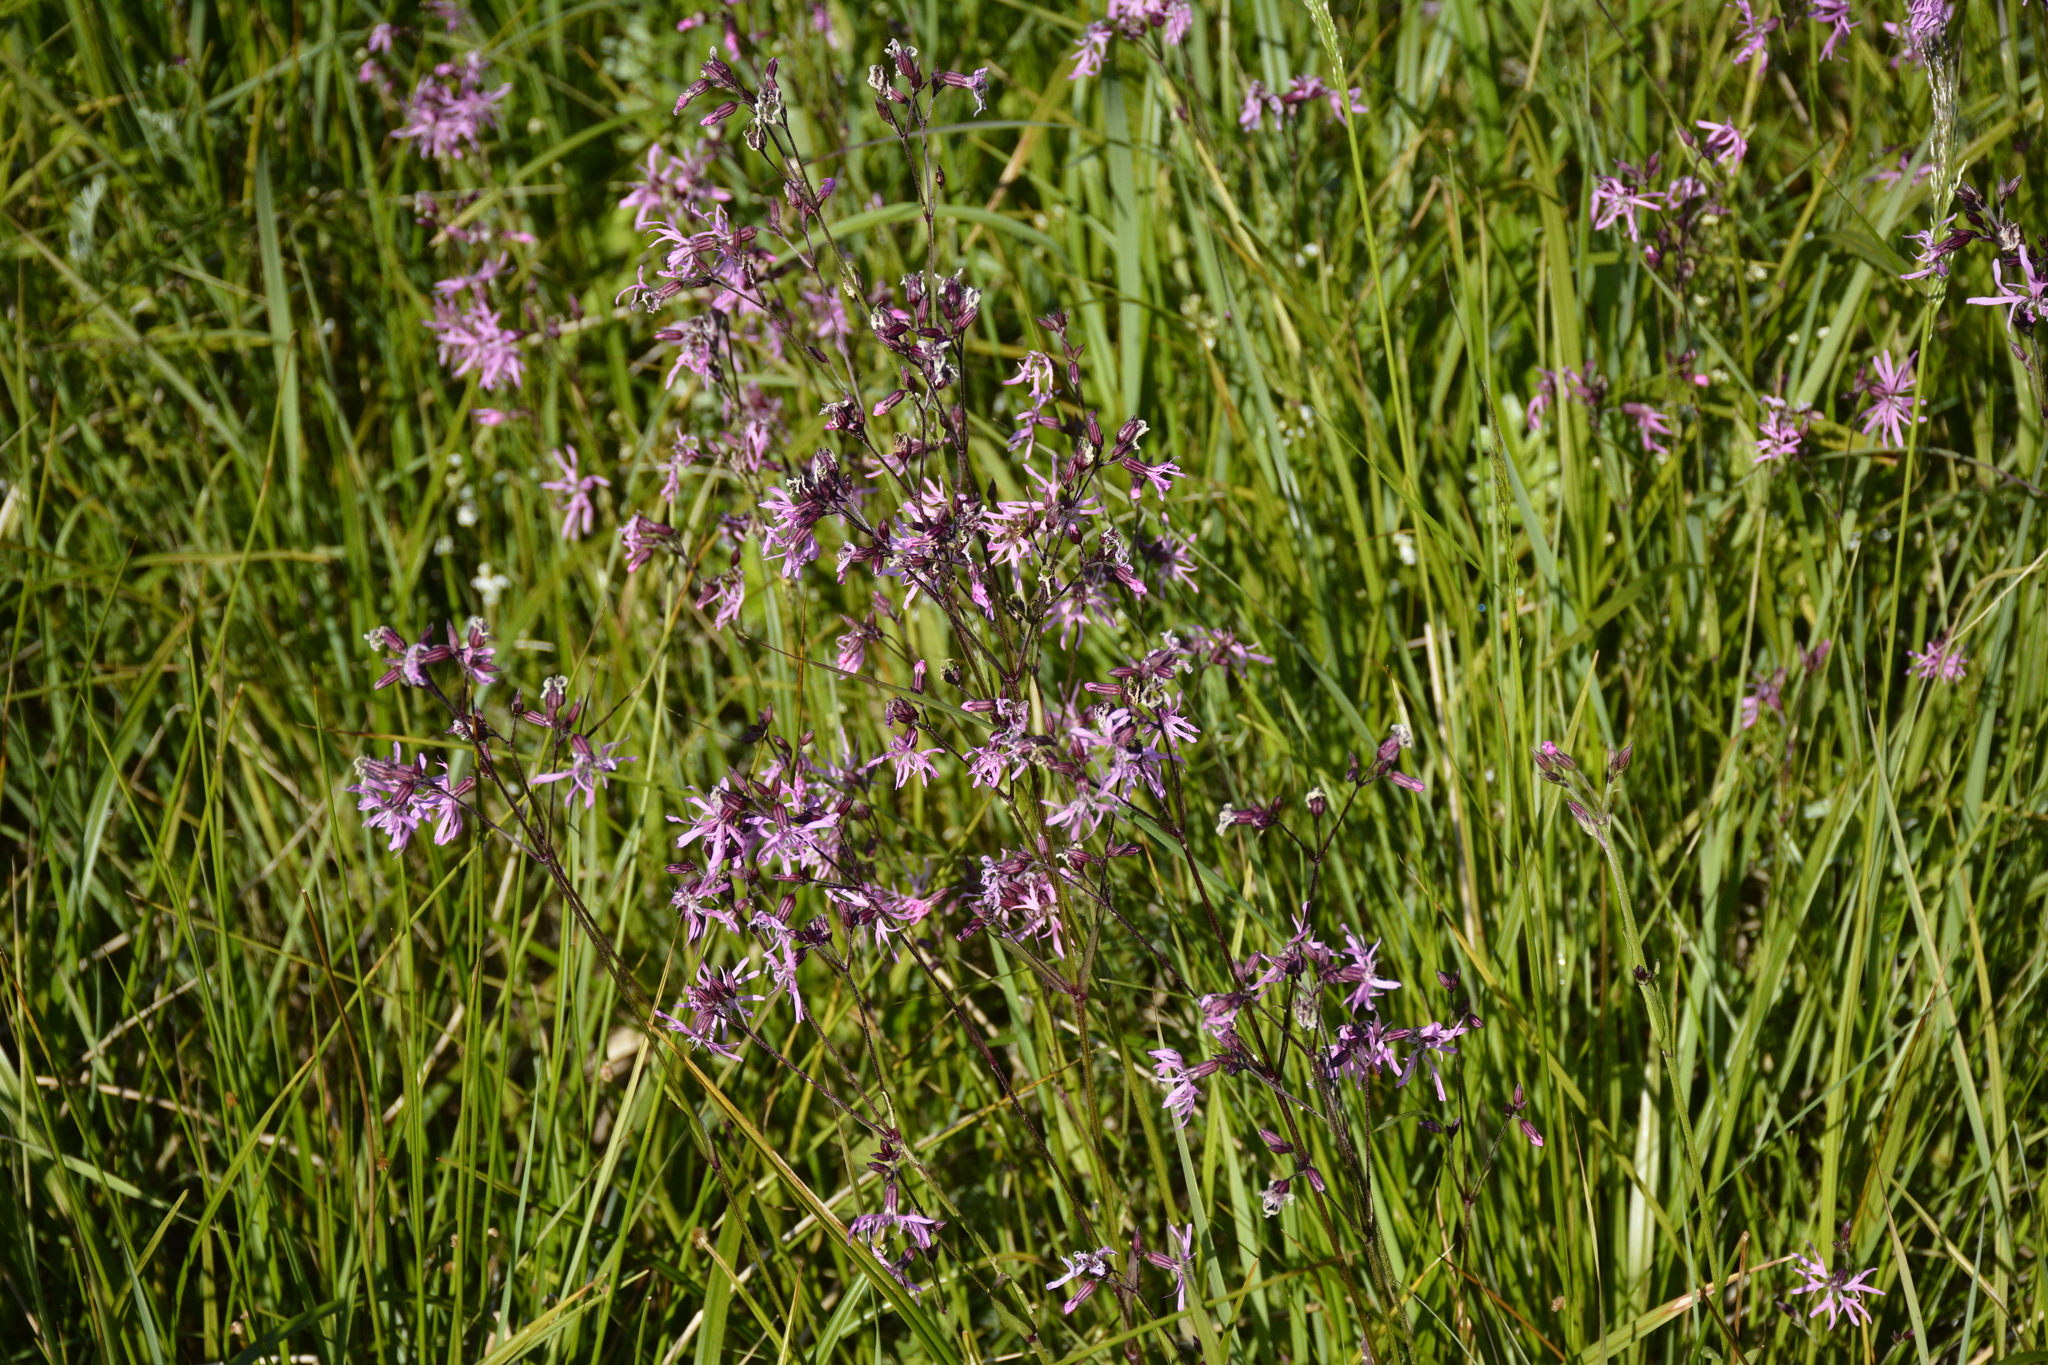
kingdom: Plantae
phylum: Tracheophyta
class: Magnoliopsida
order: Caryophyllales
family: Caryophyllaceae
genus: Silene
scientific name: Silene flos-cuculi
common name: Ragged-robin
